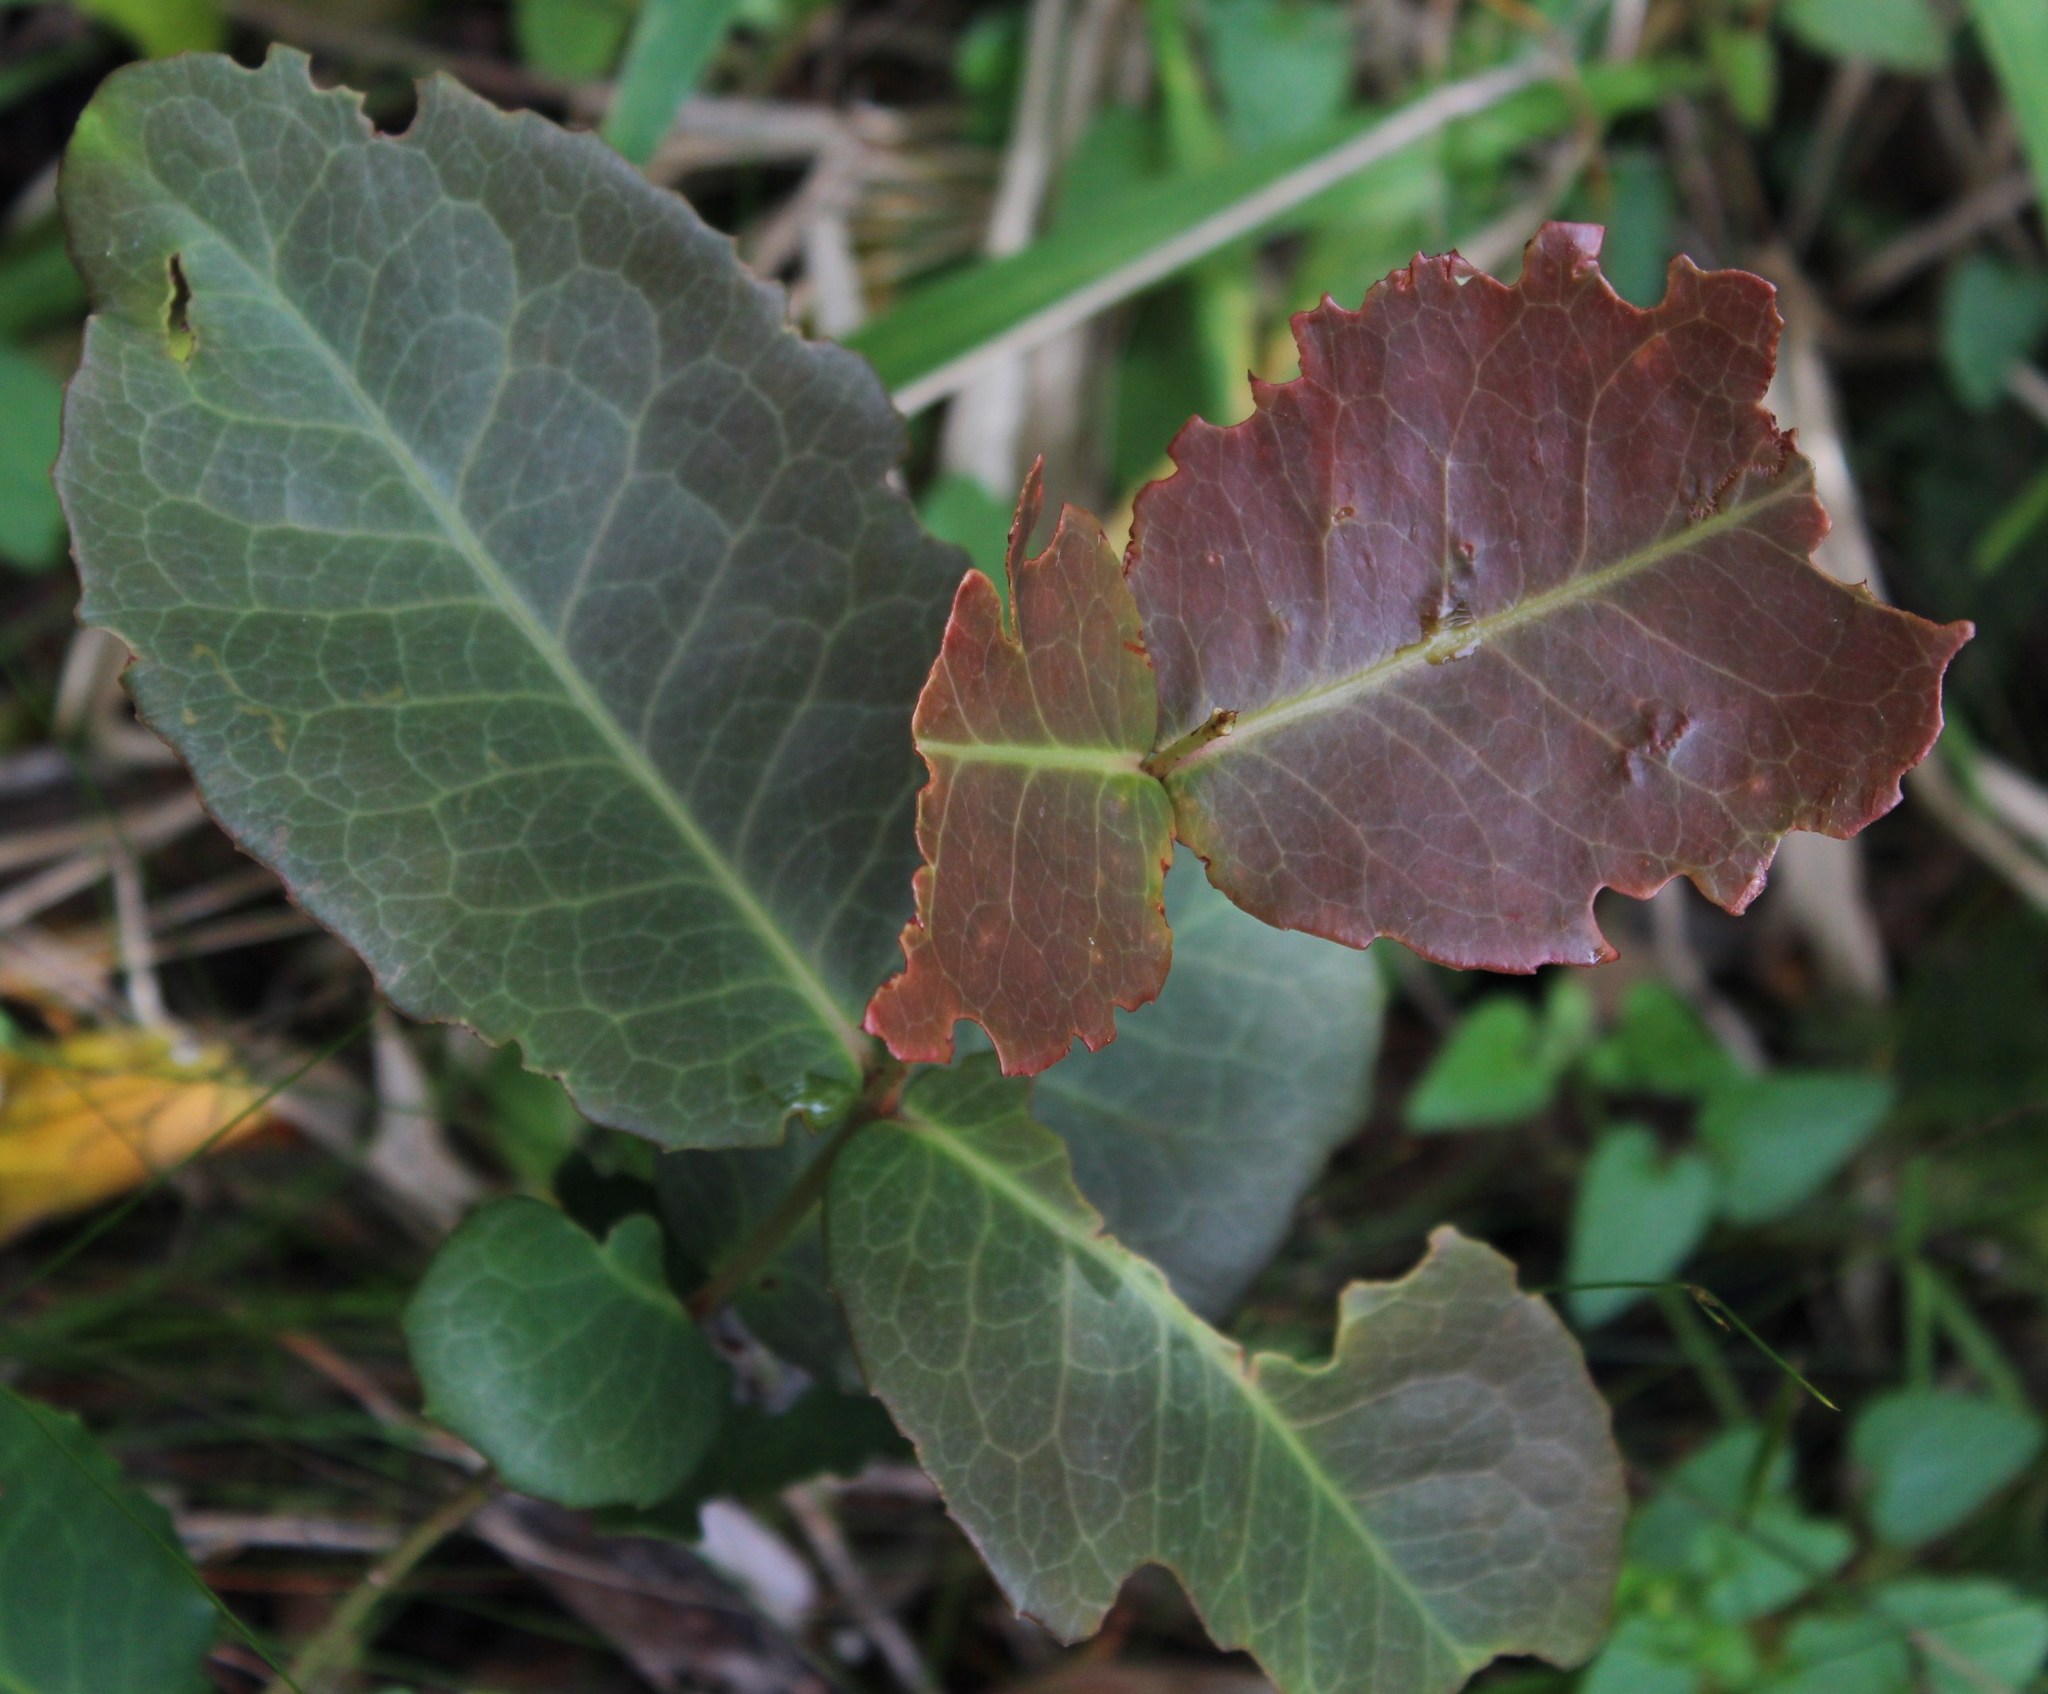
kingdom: Plantae
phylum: Tracheophyta
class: Magnoliopsida
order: Celastrales
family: Celastraceae
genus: Lauridia
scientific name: Lauridia tetragona
